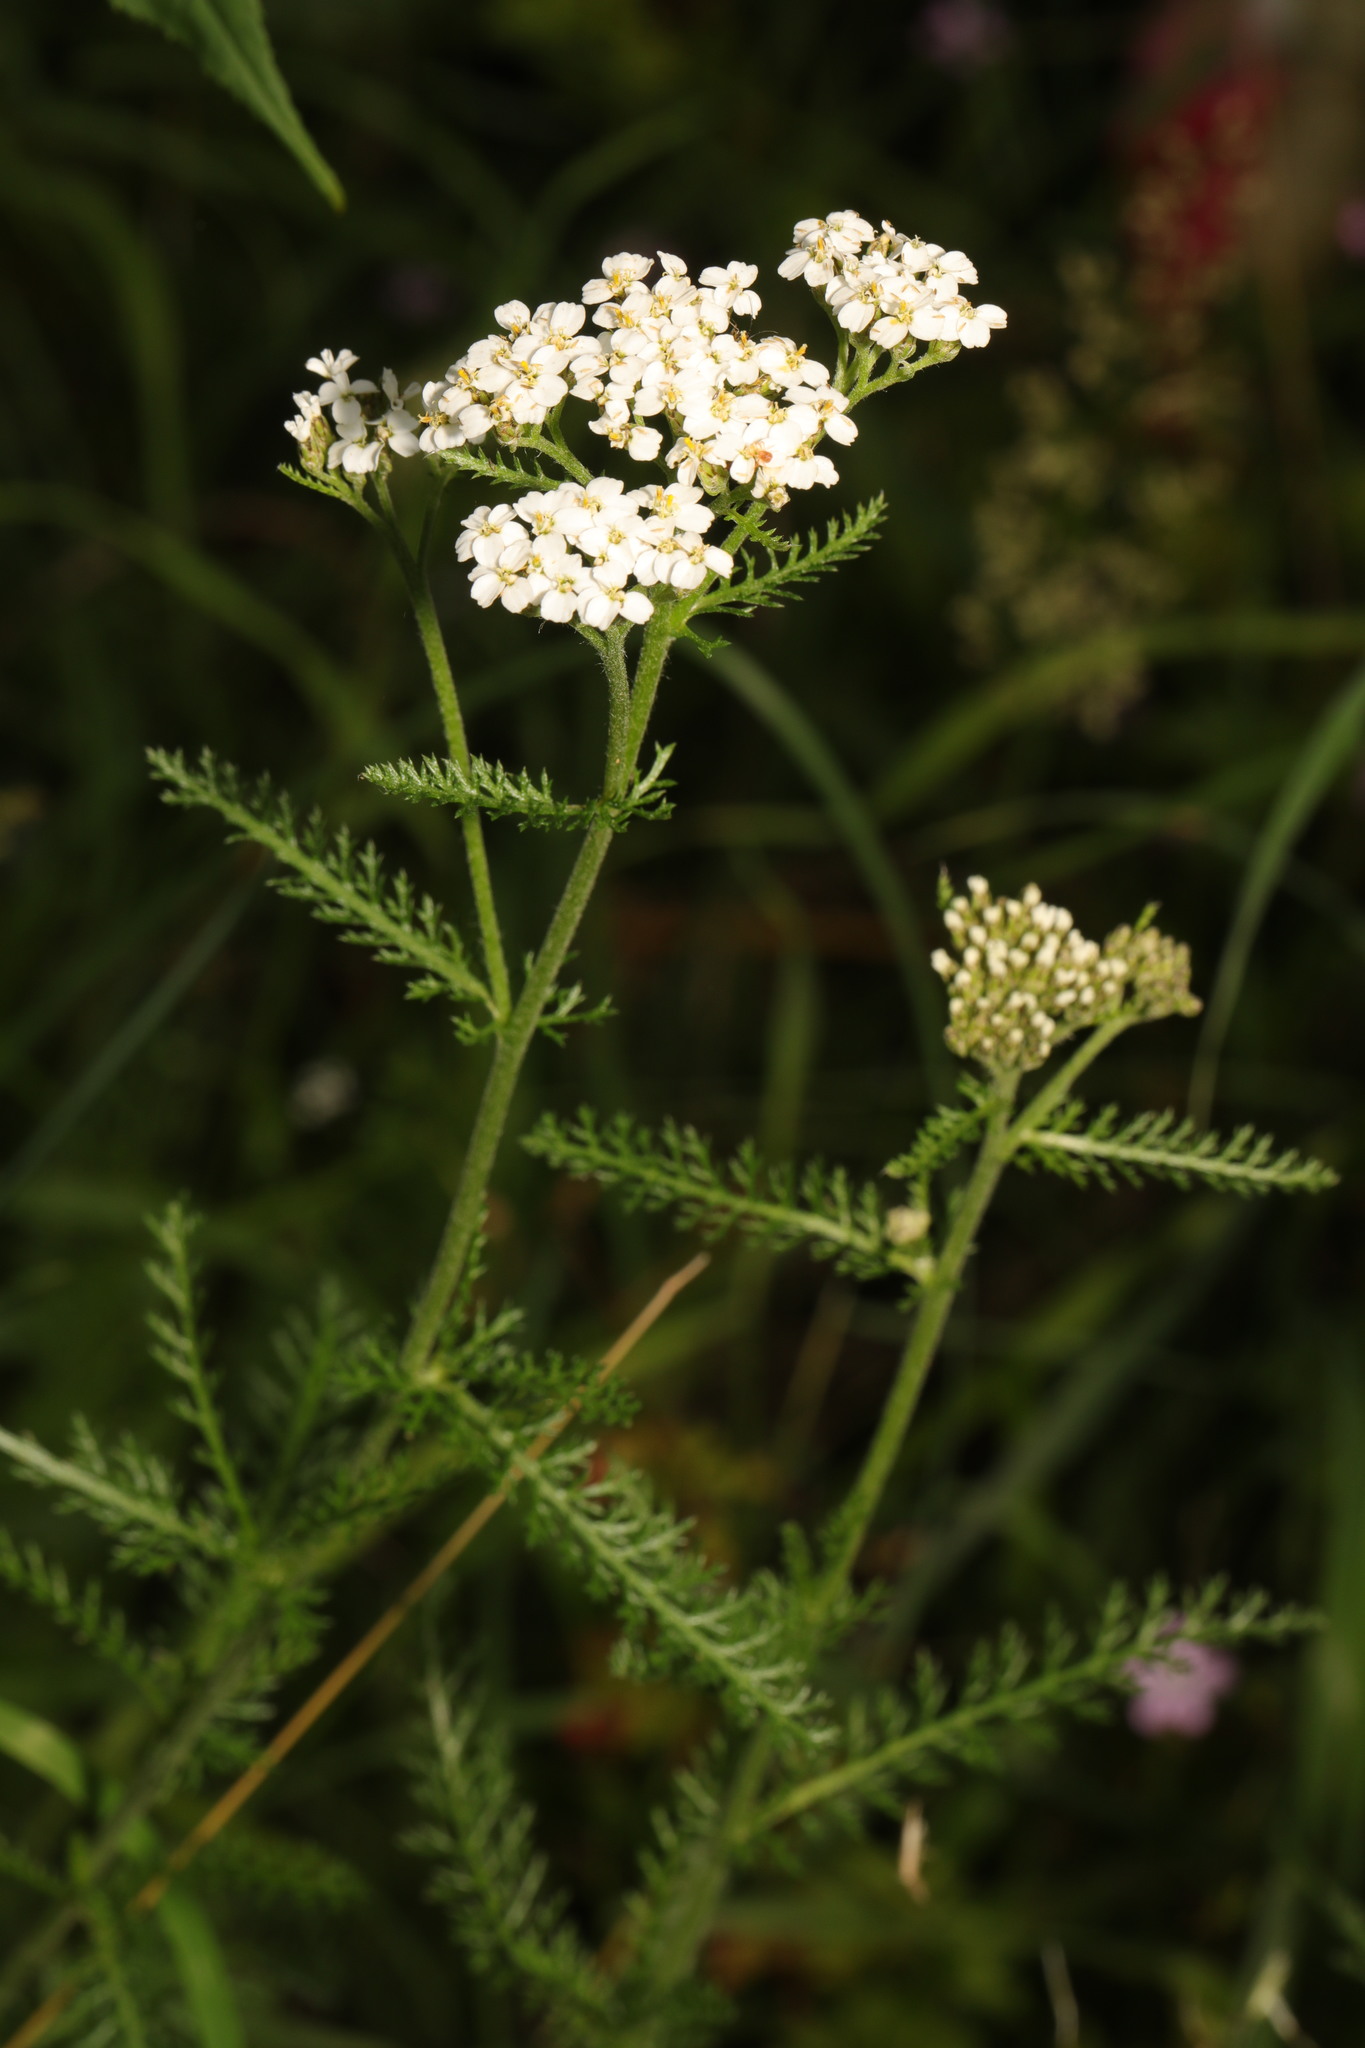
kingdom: Plantae
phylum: Tracheophyta
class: Magnoliopsida
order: Asterales
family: Asteraceae
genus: Achillea
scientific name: Achillea millefolium
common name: Yarrow
